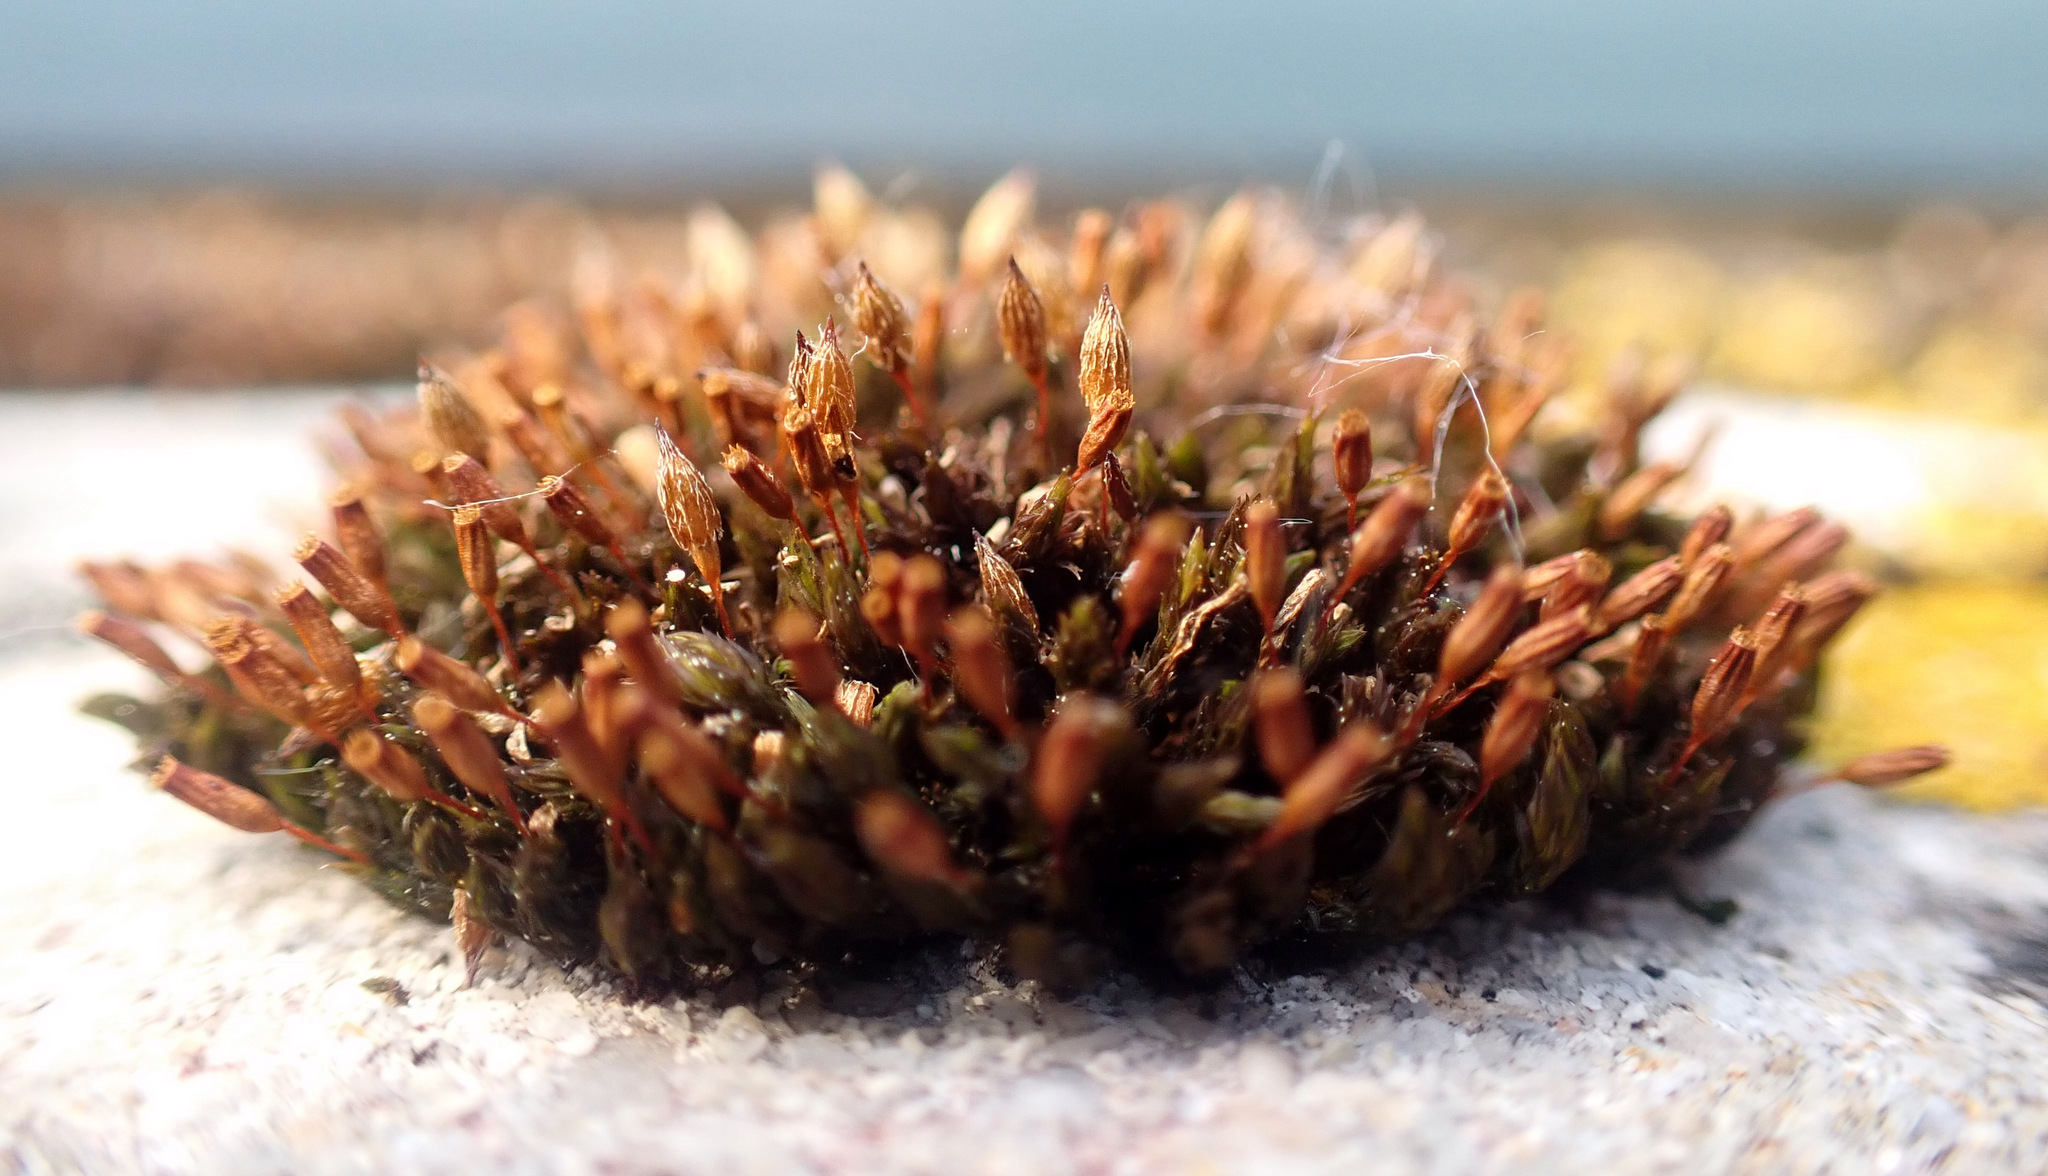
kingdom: Plantae
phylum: Bryophyta
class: Bryopsida
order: Orthotrichales
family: Orthotrichaceae
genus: Orthotrichum
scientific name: Orthotrichum anomalum
